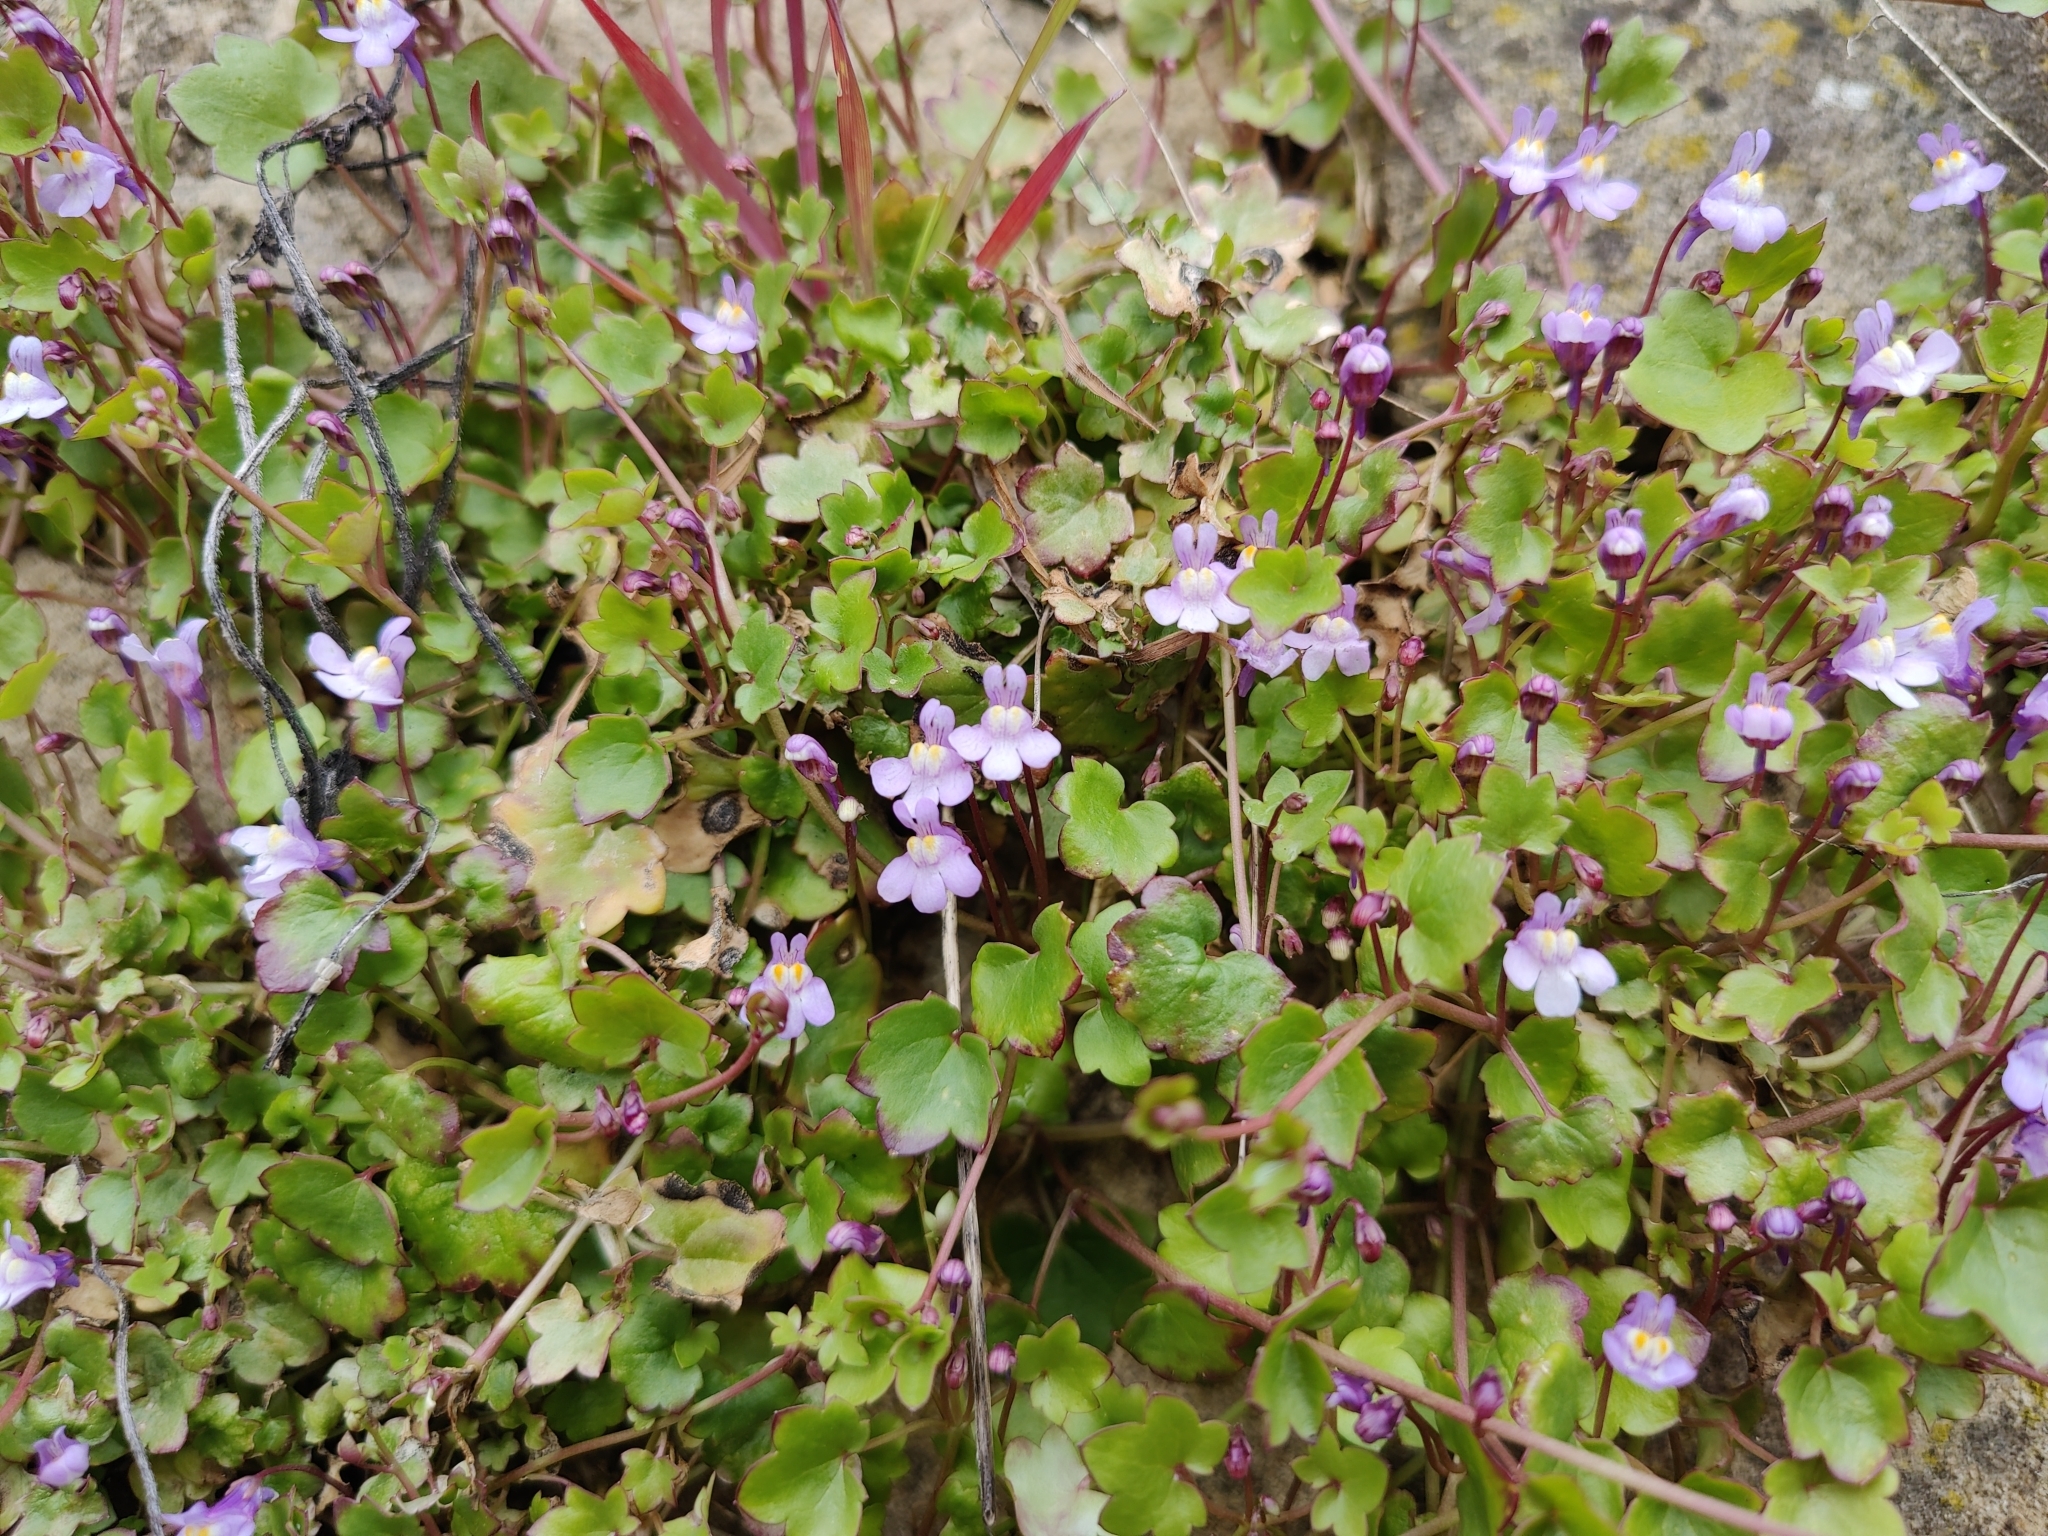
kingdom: Plantae
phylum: Tracheophyta
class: Magnoliopsida
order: Lamiales
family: Plantaginaceae
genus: Cymbalaria
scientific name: Cymbalaria muralis
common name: Ivy-leaved toadflax
